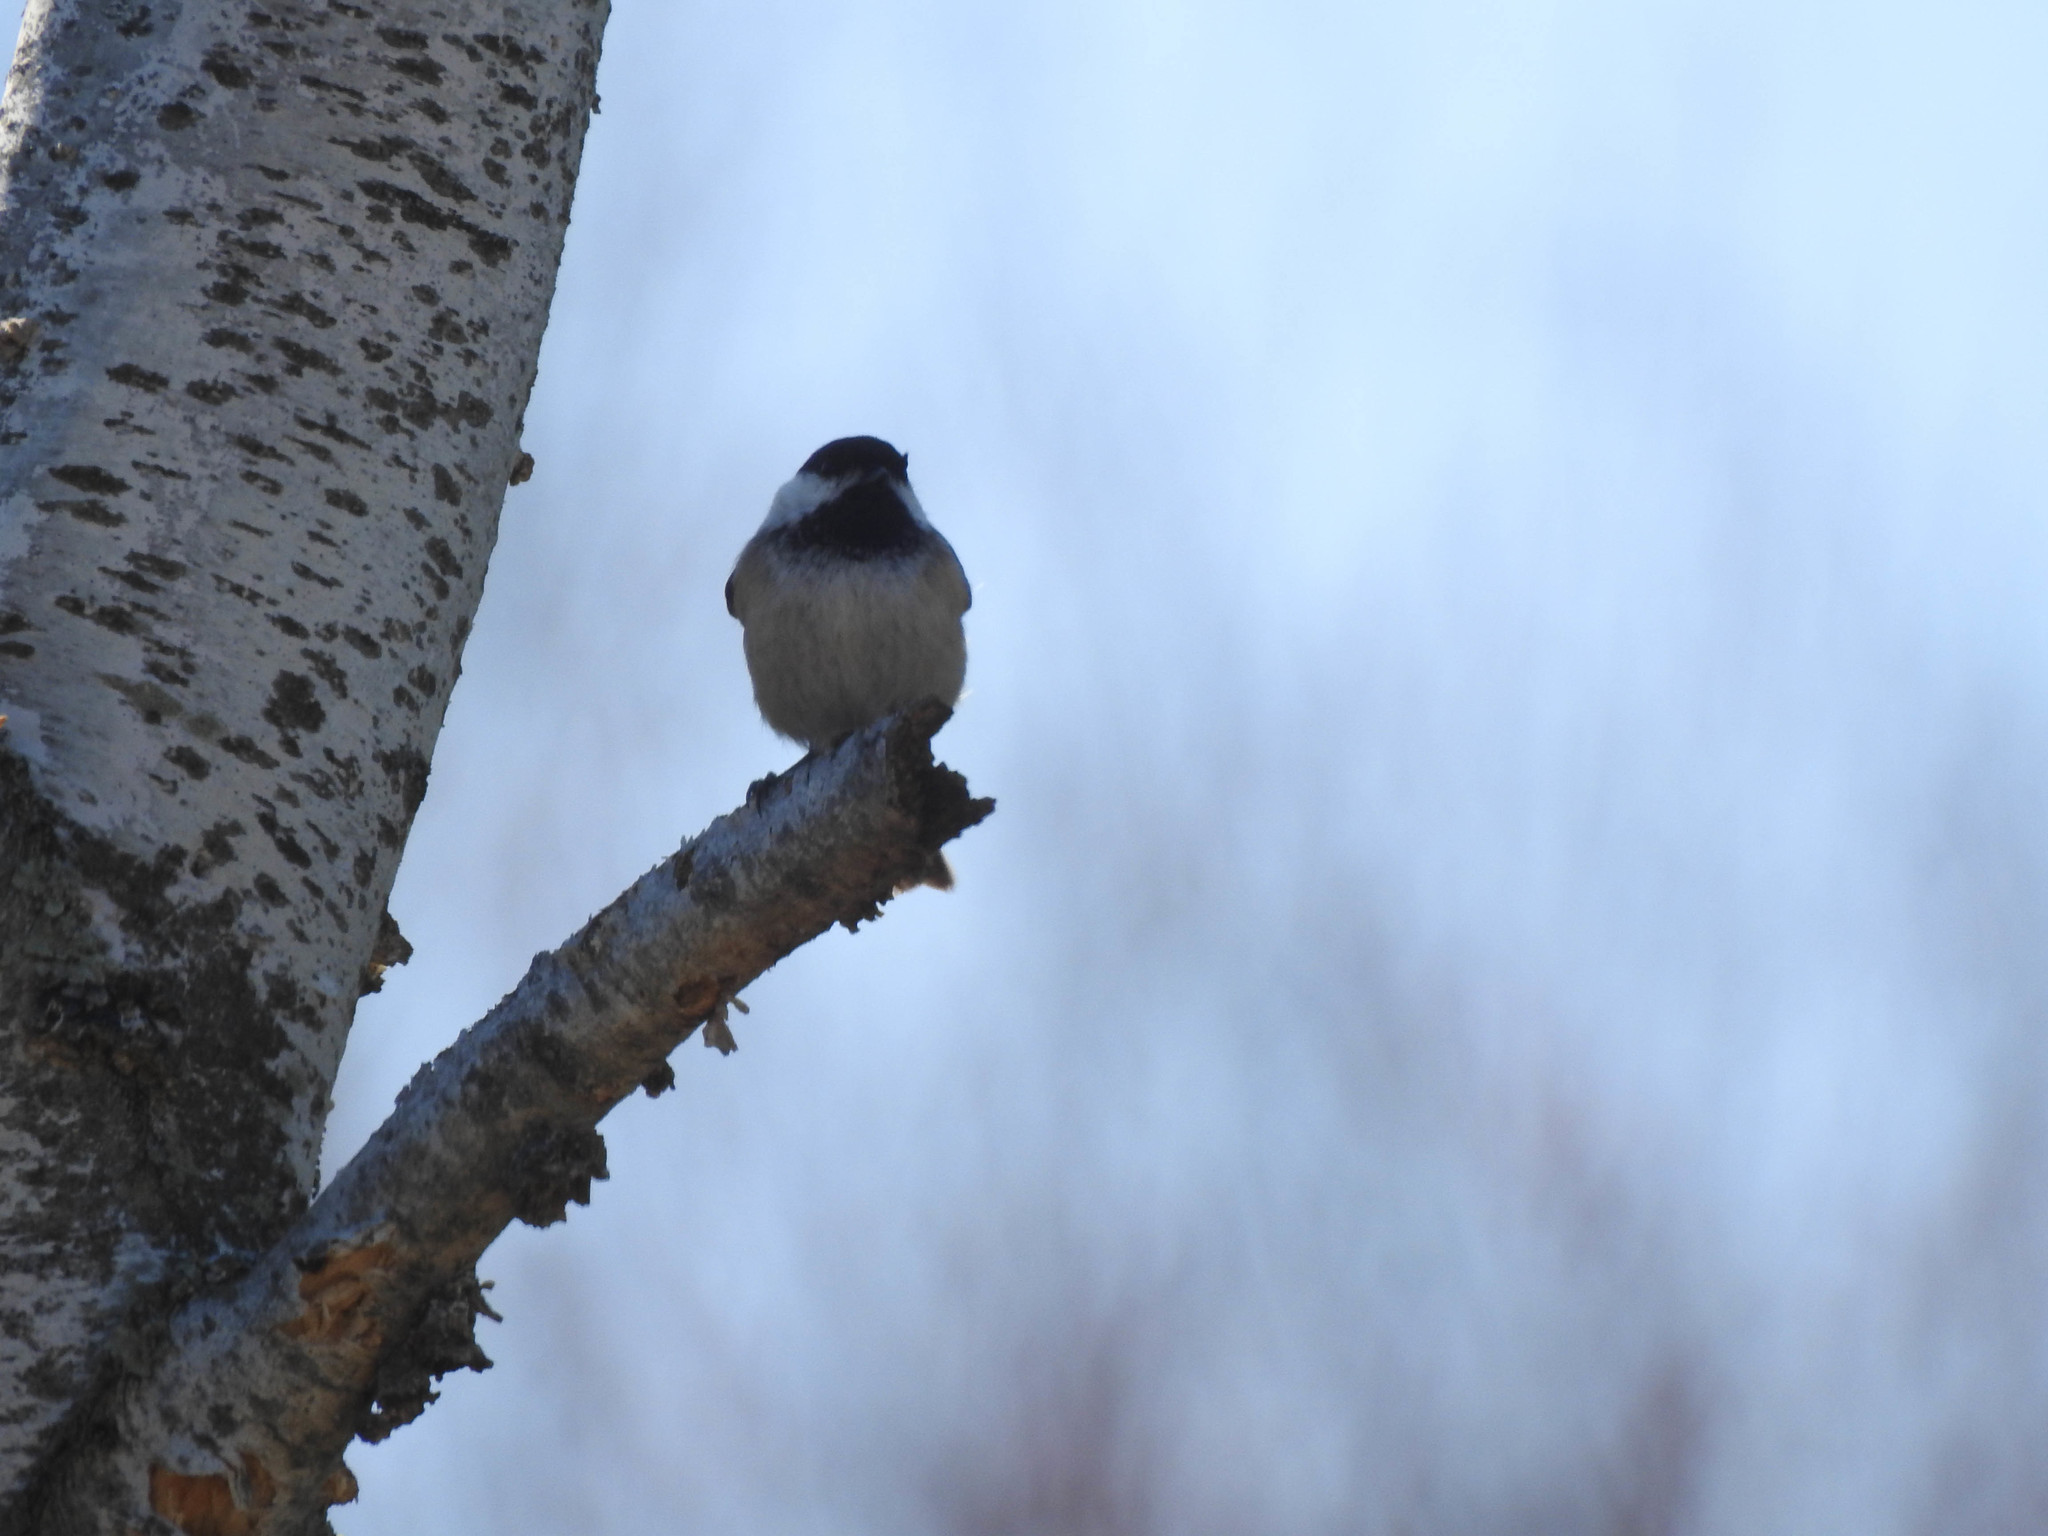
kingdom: Animalia
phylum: Chordata
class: Aves
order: Passeriformes
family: Paridae
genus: Poecile
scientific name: Poecile atricapillus
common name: Black-capped chickadee
